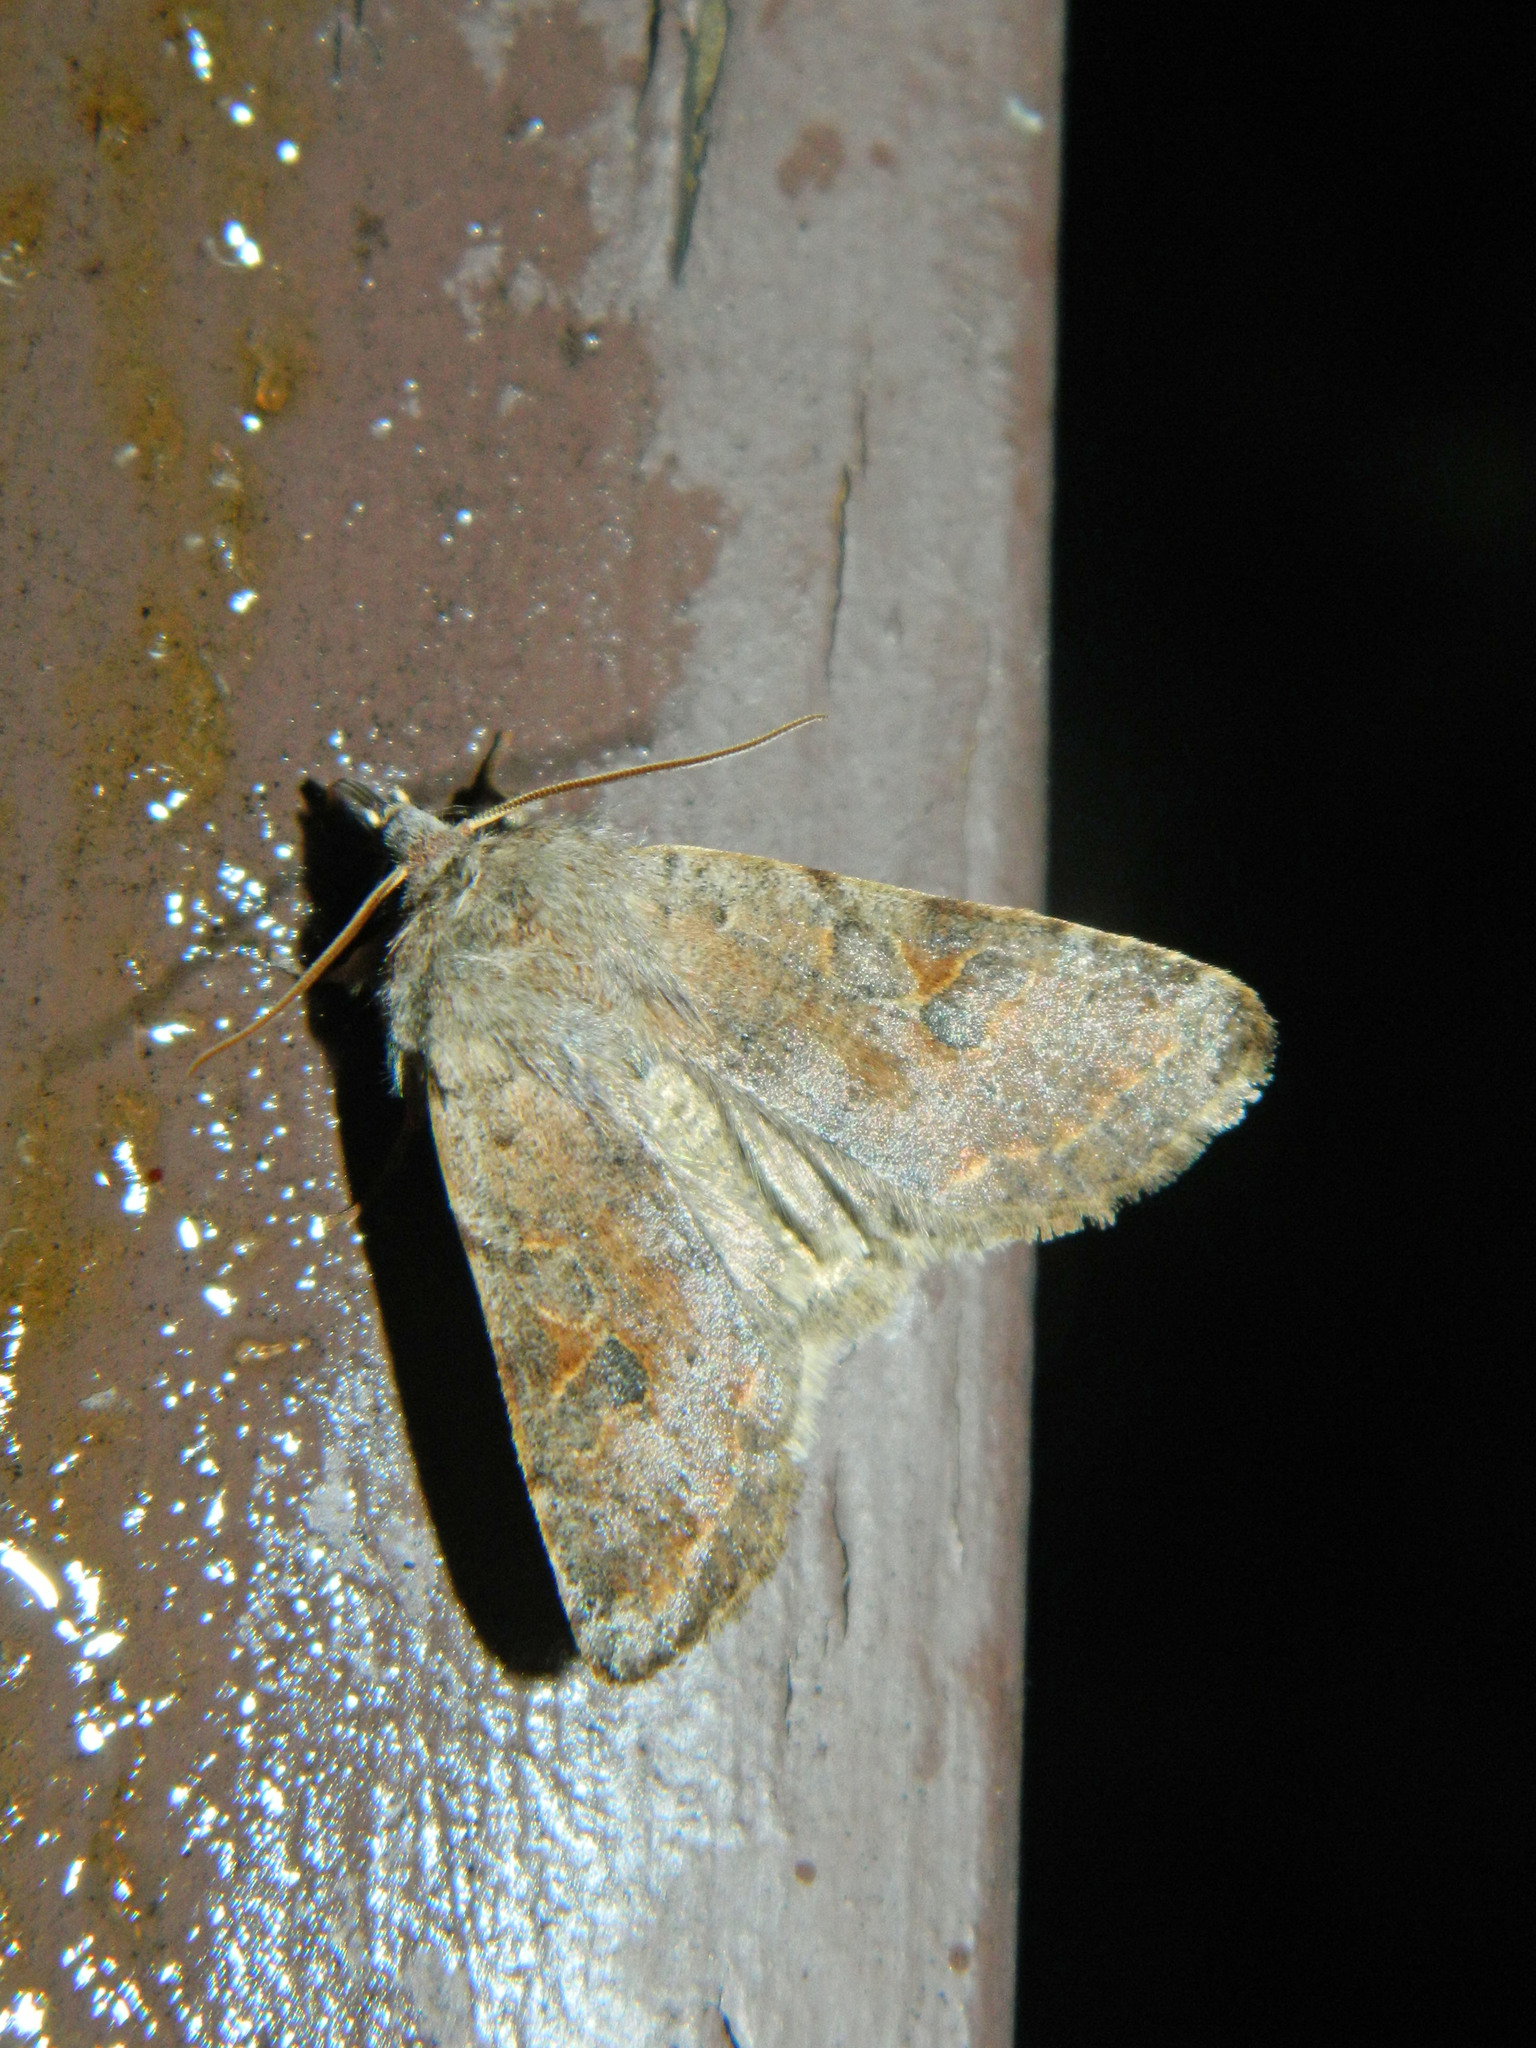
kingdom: Animalia
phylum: Arthropoda
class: Insecta
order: Lepidoptera
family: Noctuidae
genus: Orthosia
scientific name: Orthosia hibisci
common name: Green fruitworm
